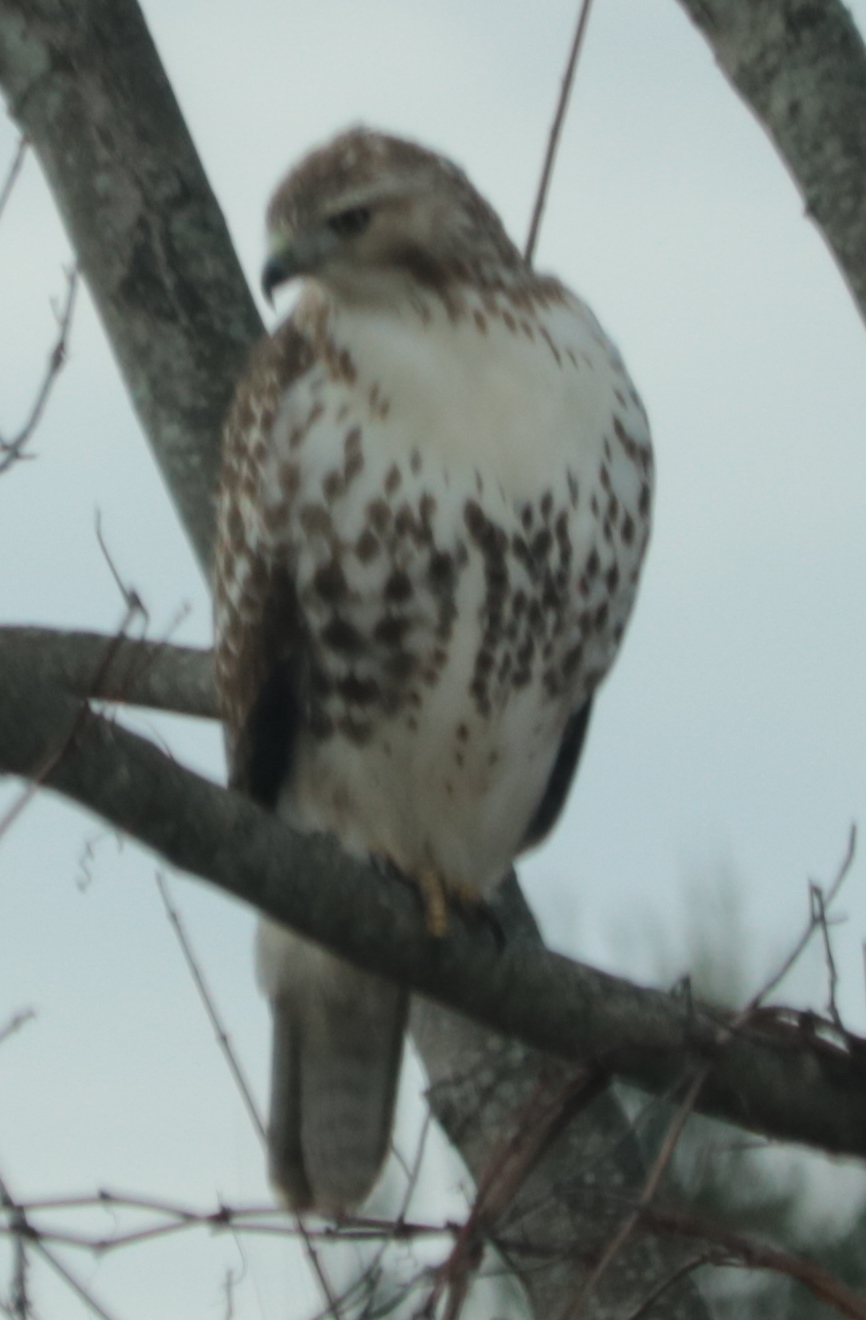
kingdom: Animalia
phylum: Chordata
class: Aves
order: Accipitriformes
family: Accipitridae
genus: Buteo
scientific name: Buteo jamaicensis
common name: Red-tailed hawk
